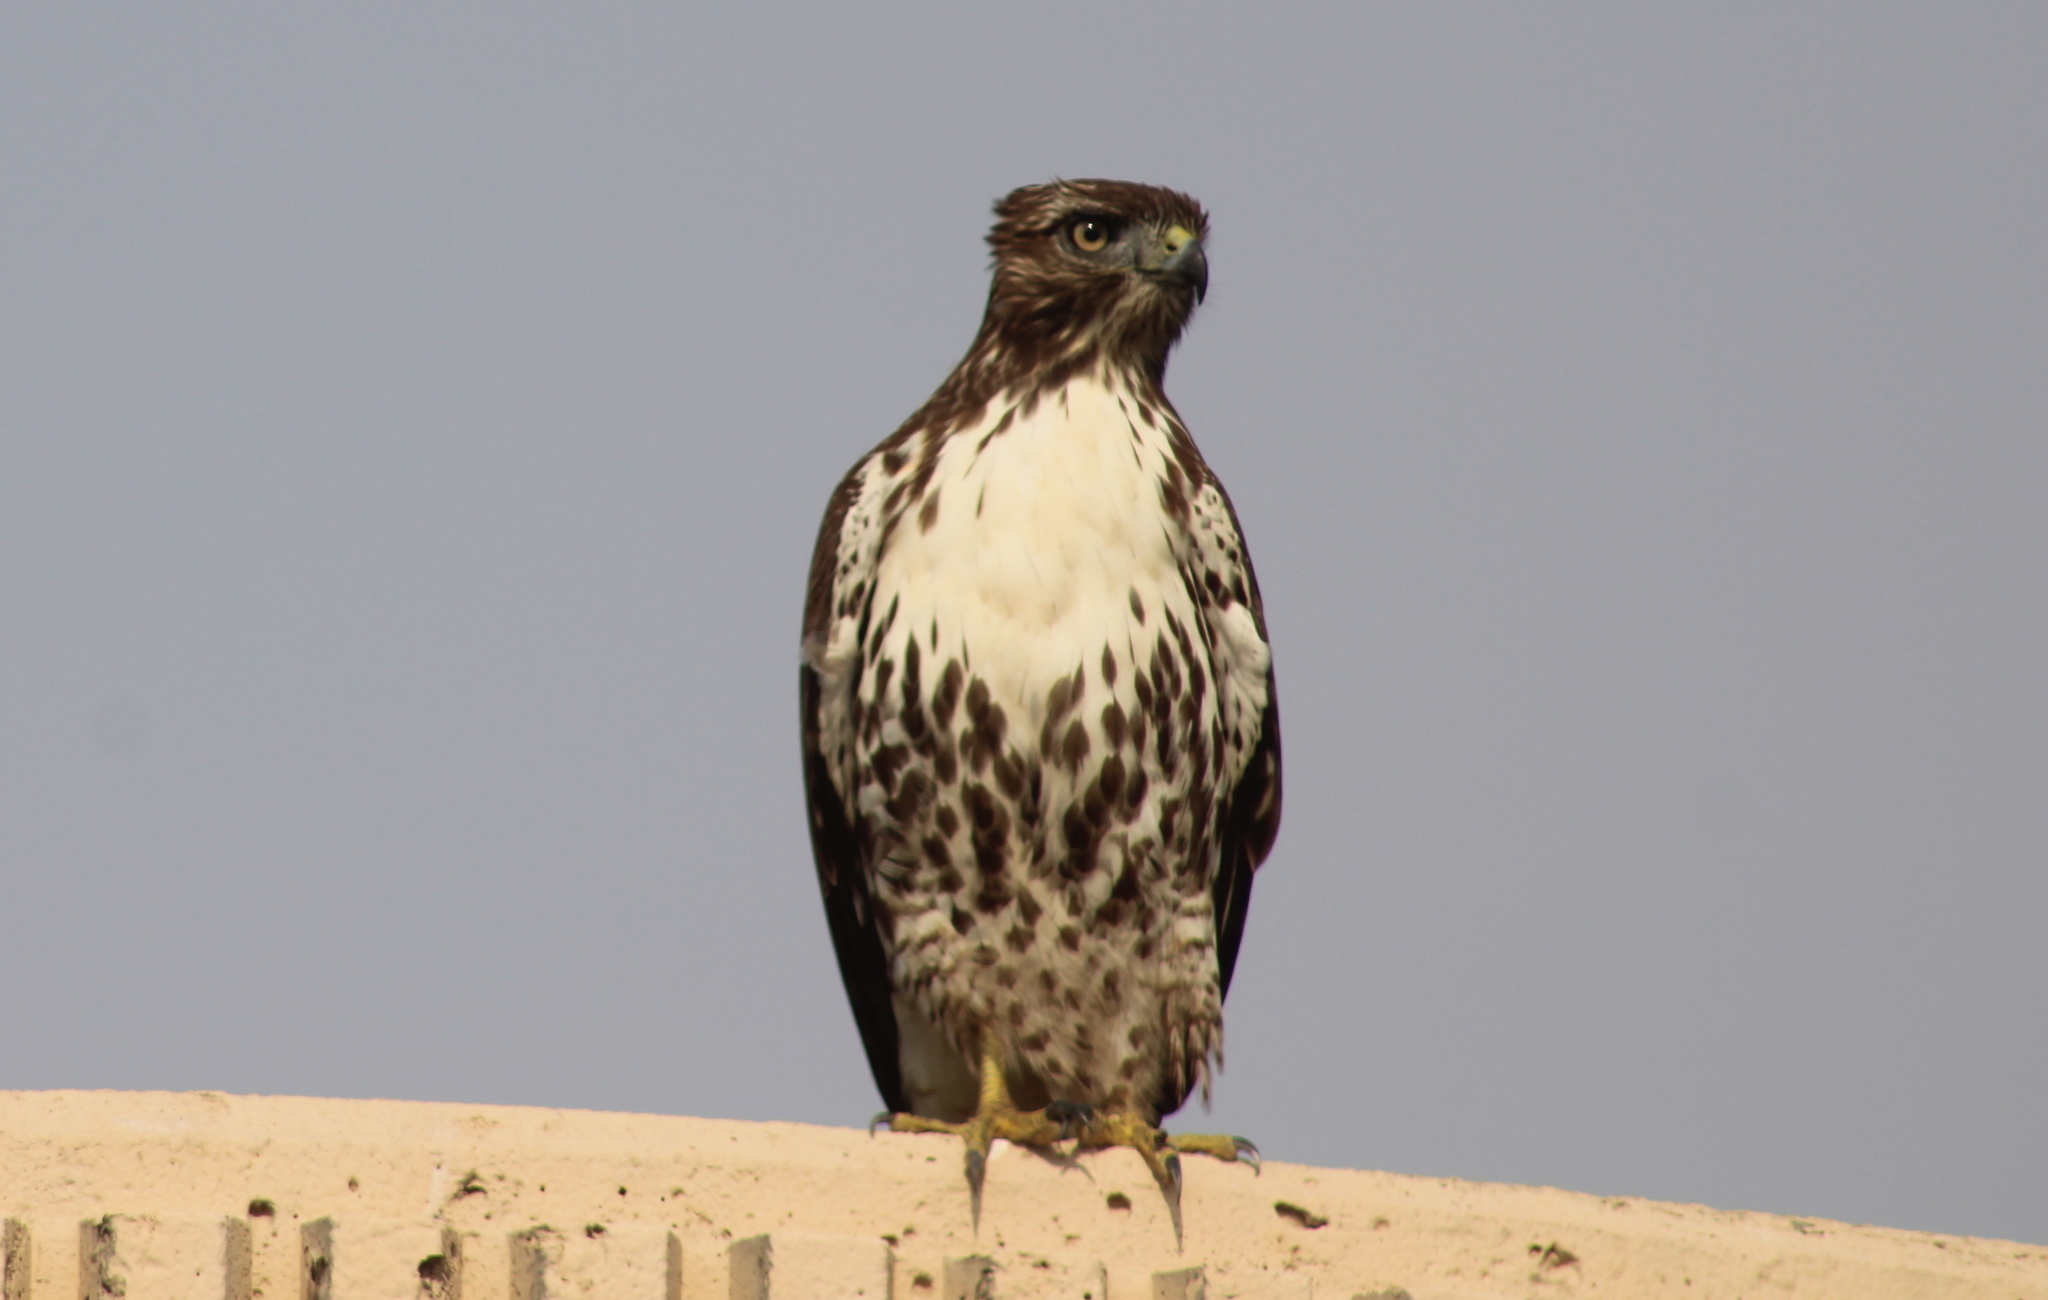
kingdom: Animalia
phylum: Chordata
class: Aves
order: Accipitriformes
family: Accipitridae
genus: Buteo
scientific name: Buteo jamaicensis
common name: Red-tailed hawk
